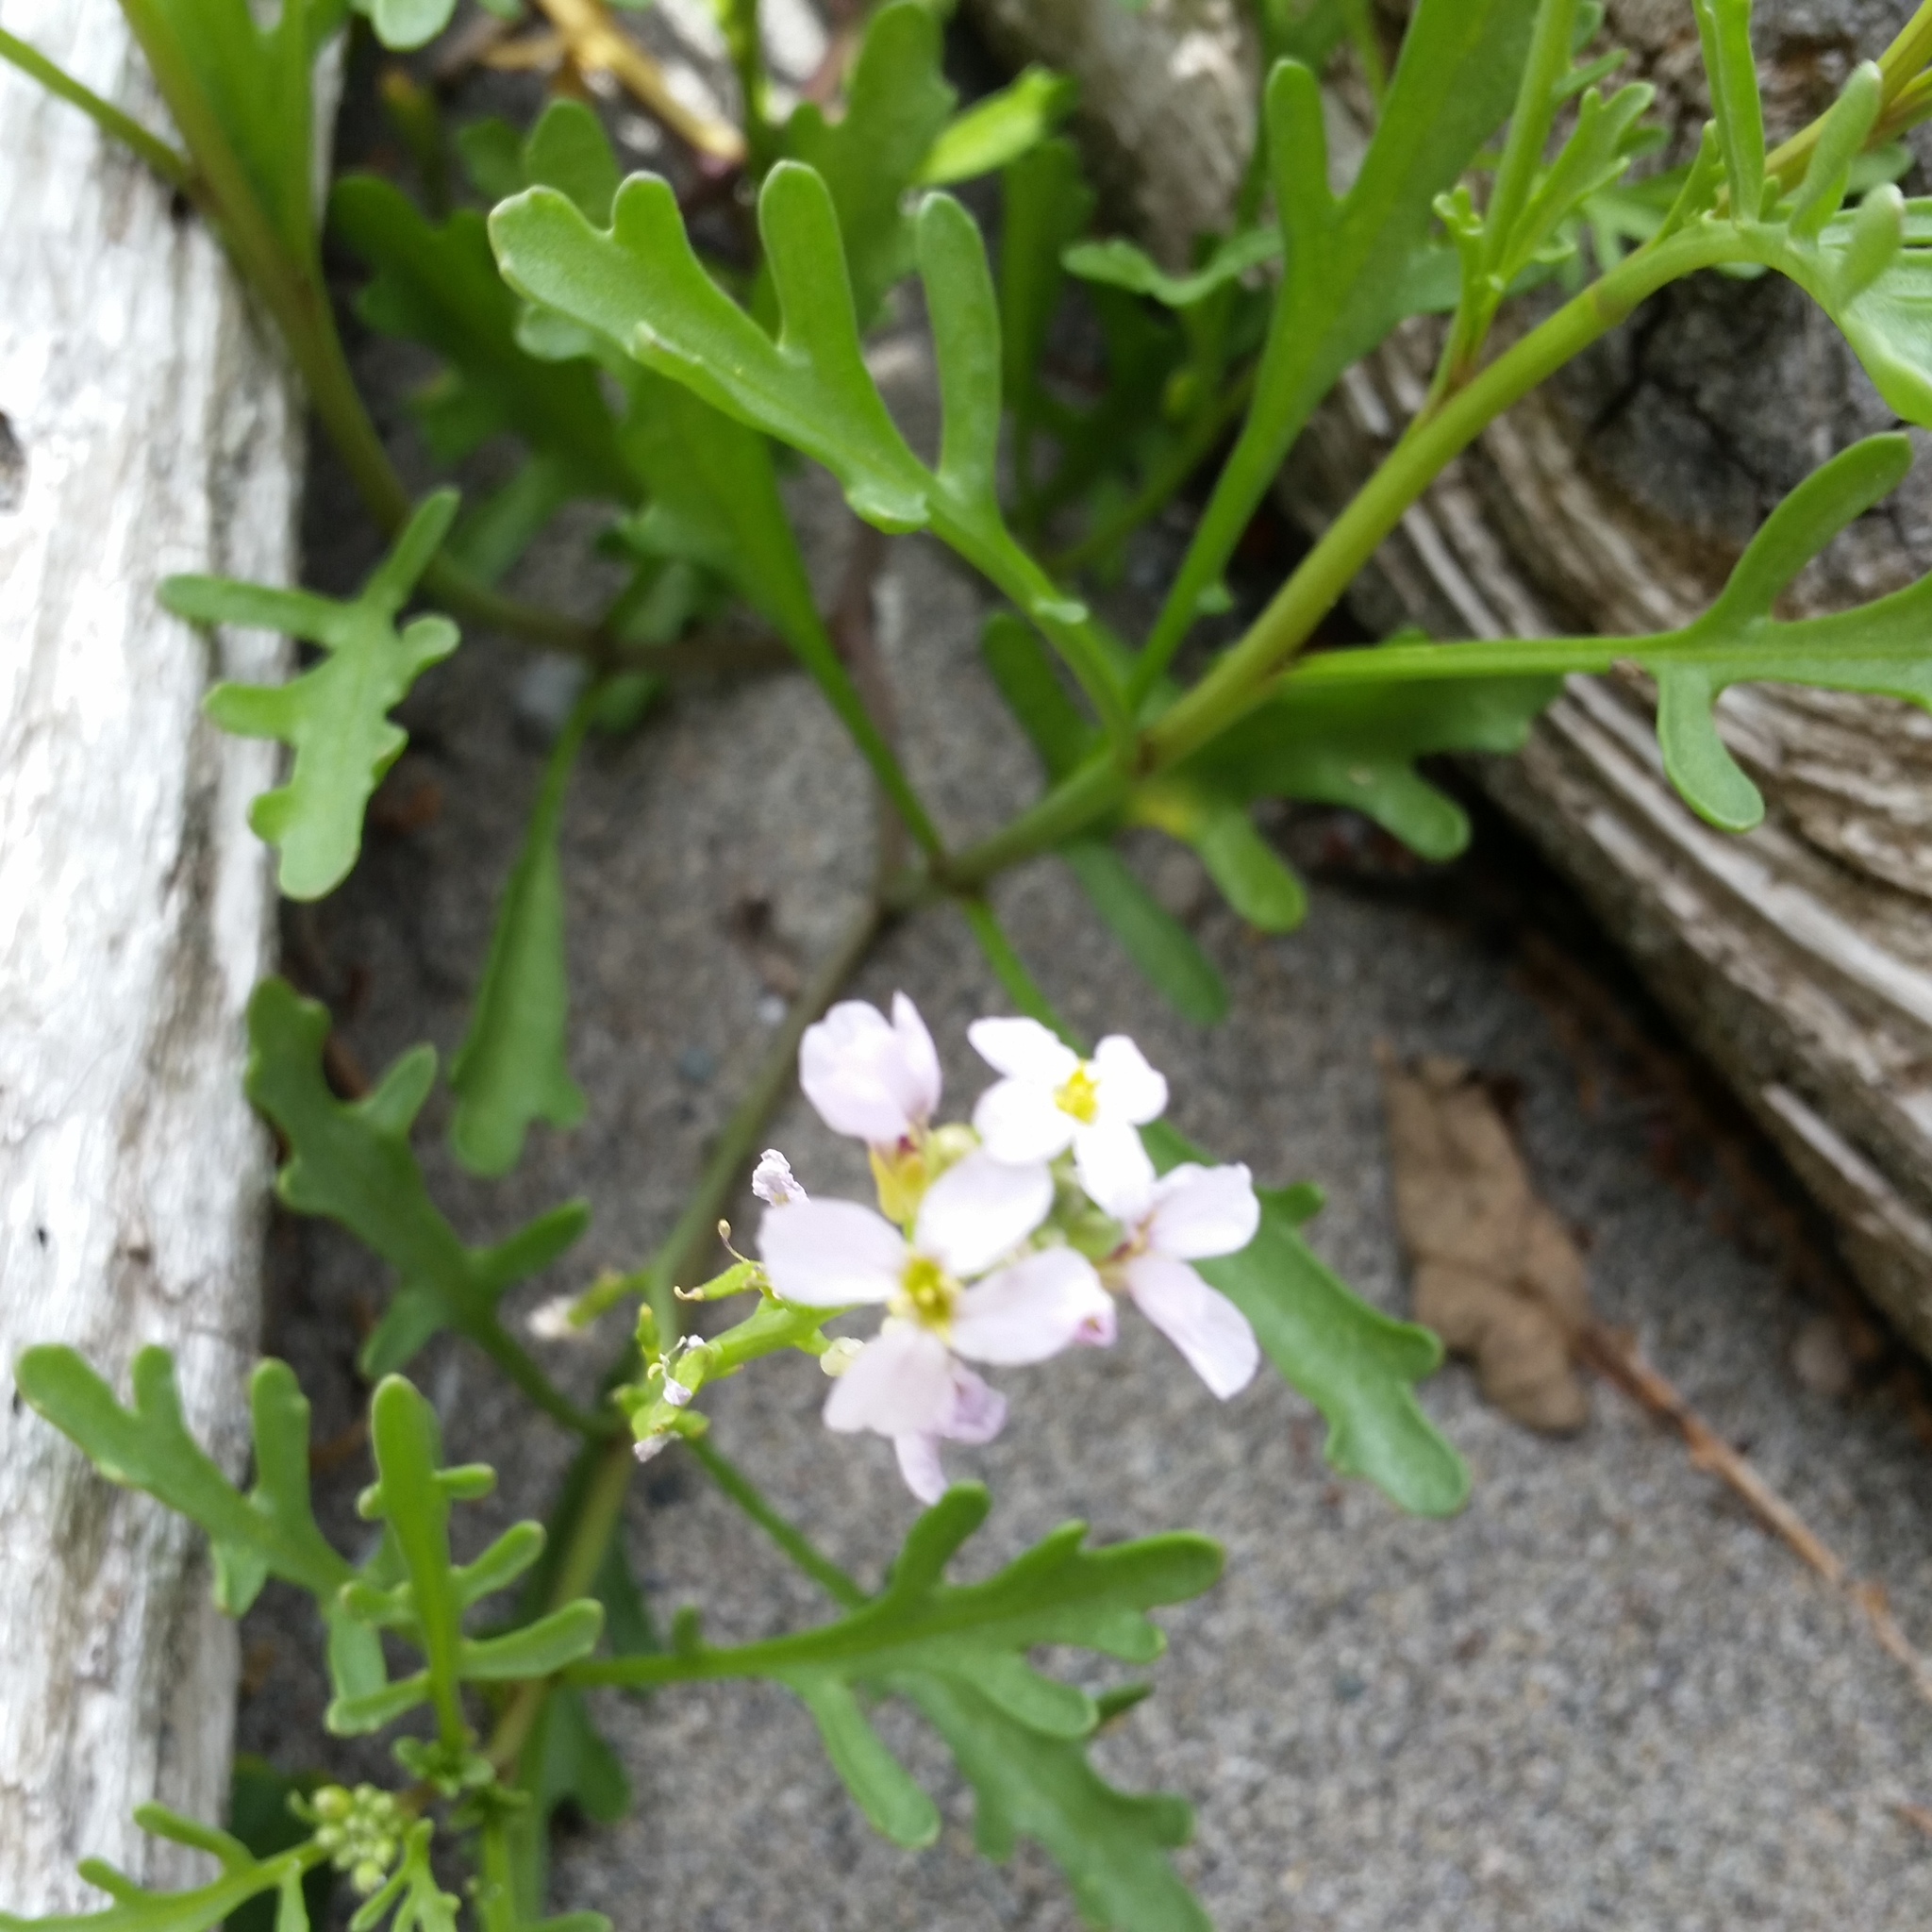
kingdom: Plantae
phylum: Tracheophyta
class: Magnoliopsida
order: Brassicales
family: Brassicaceae
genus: Cakile
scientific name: Cakile maritima
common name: Sea rocket
